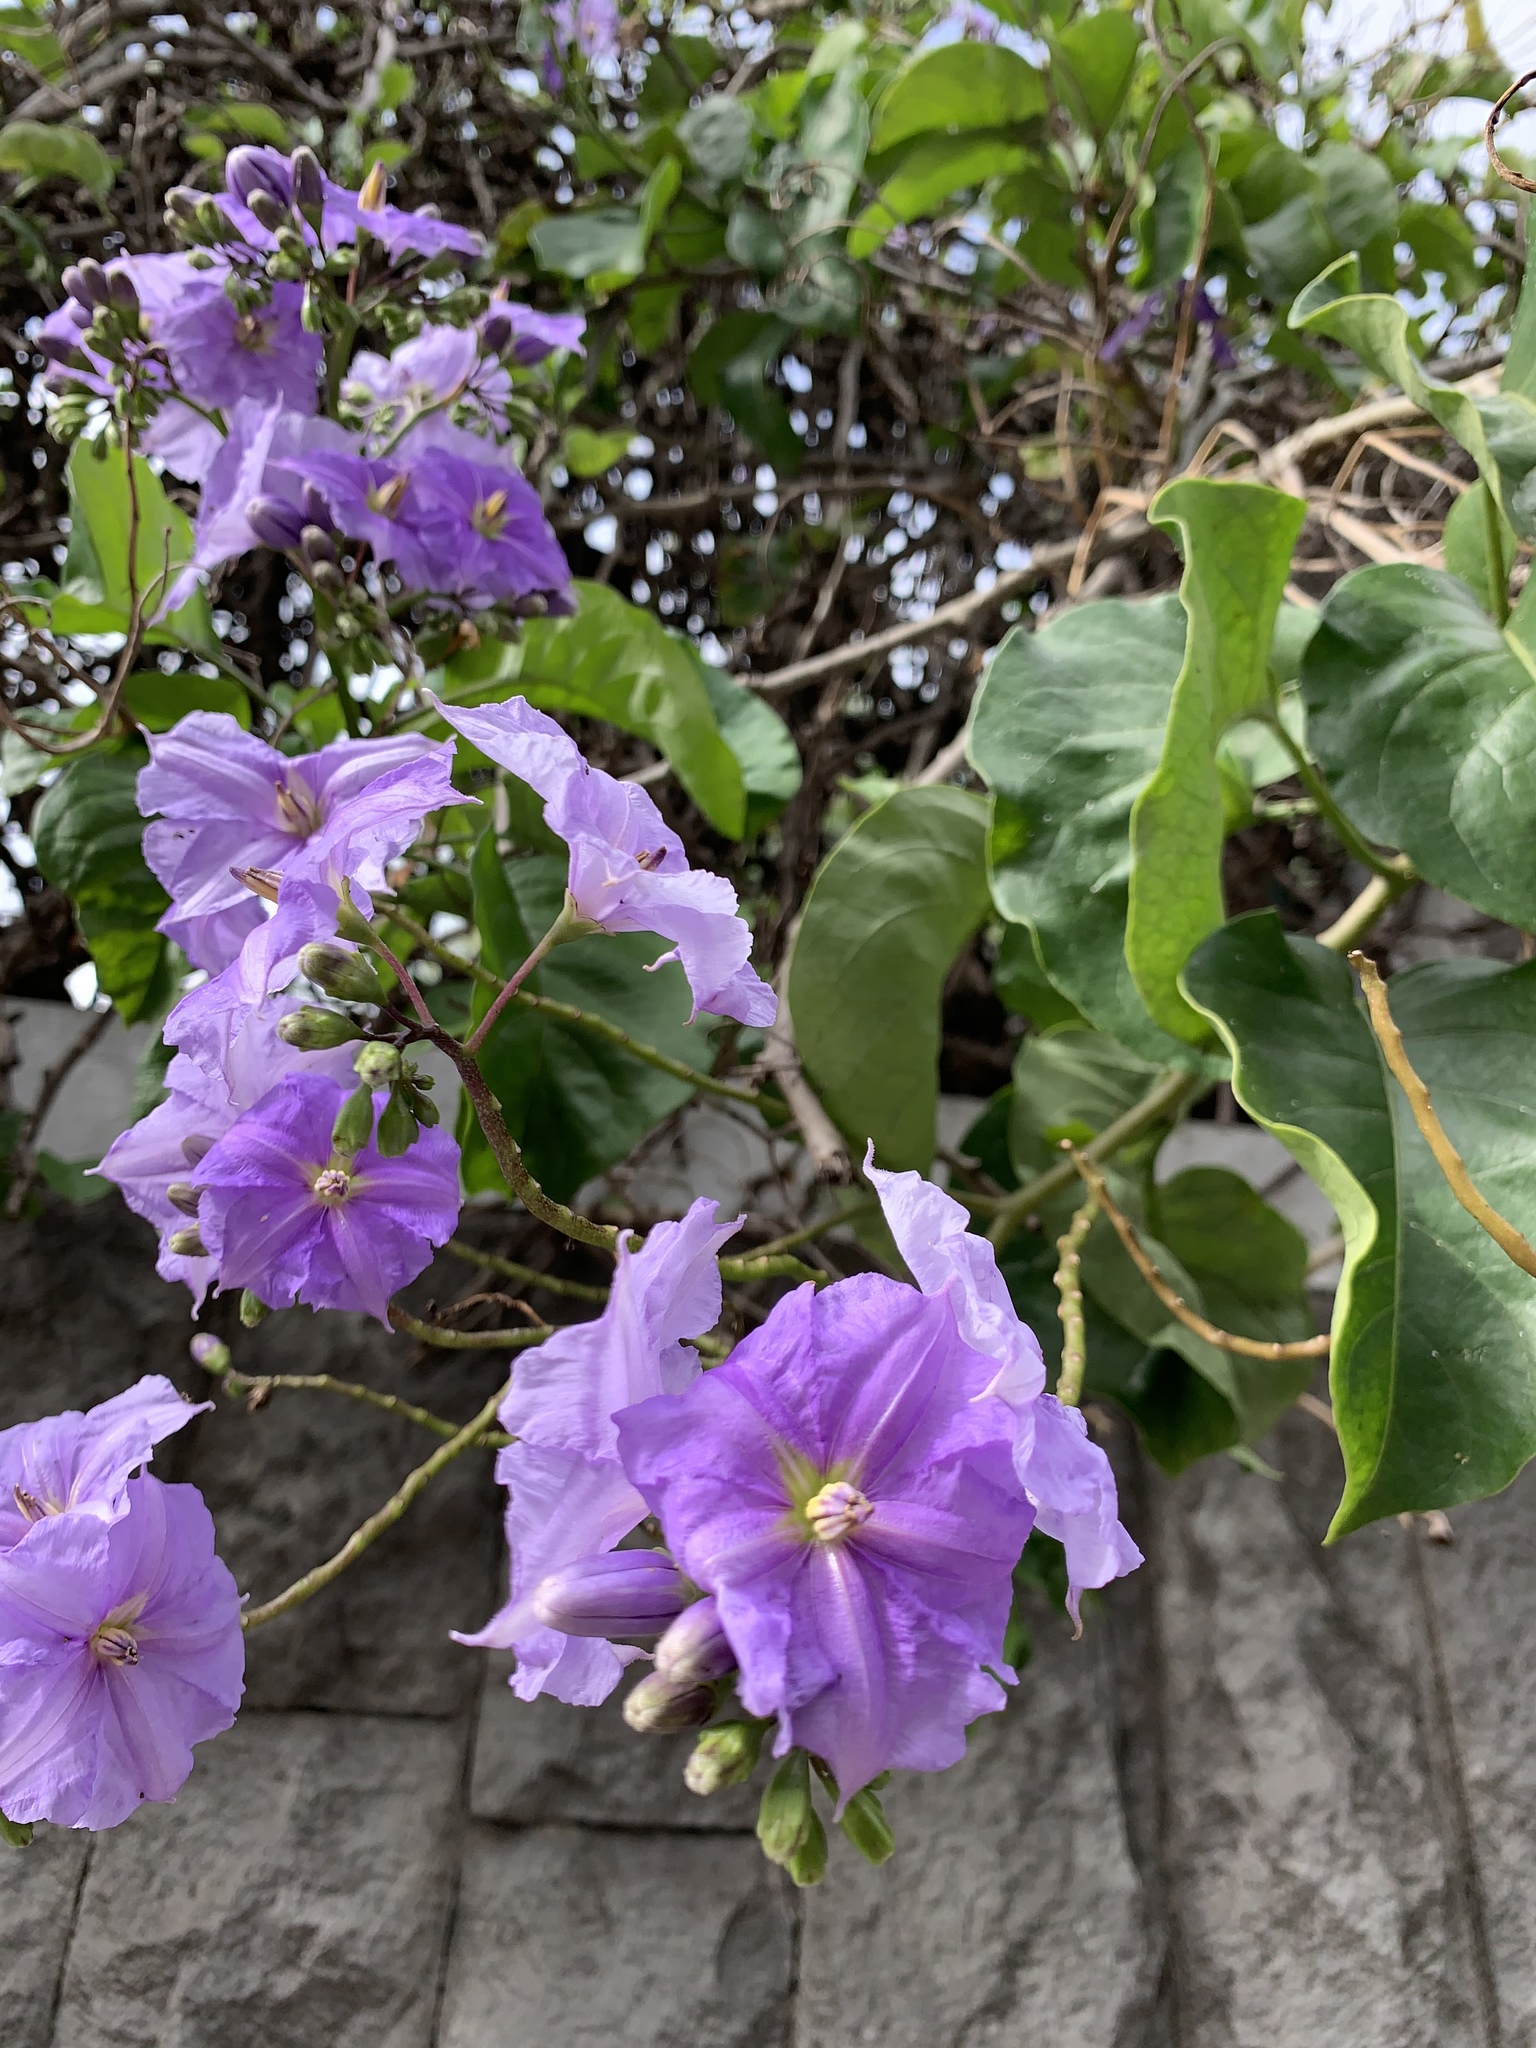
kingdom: Plantae
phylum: Tracheophyta
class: Magnoliopsida
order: Solanales
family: Solanaceae
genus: Solanum
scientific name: Solanum wendlandii
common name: Costa rican nightshade
